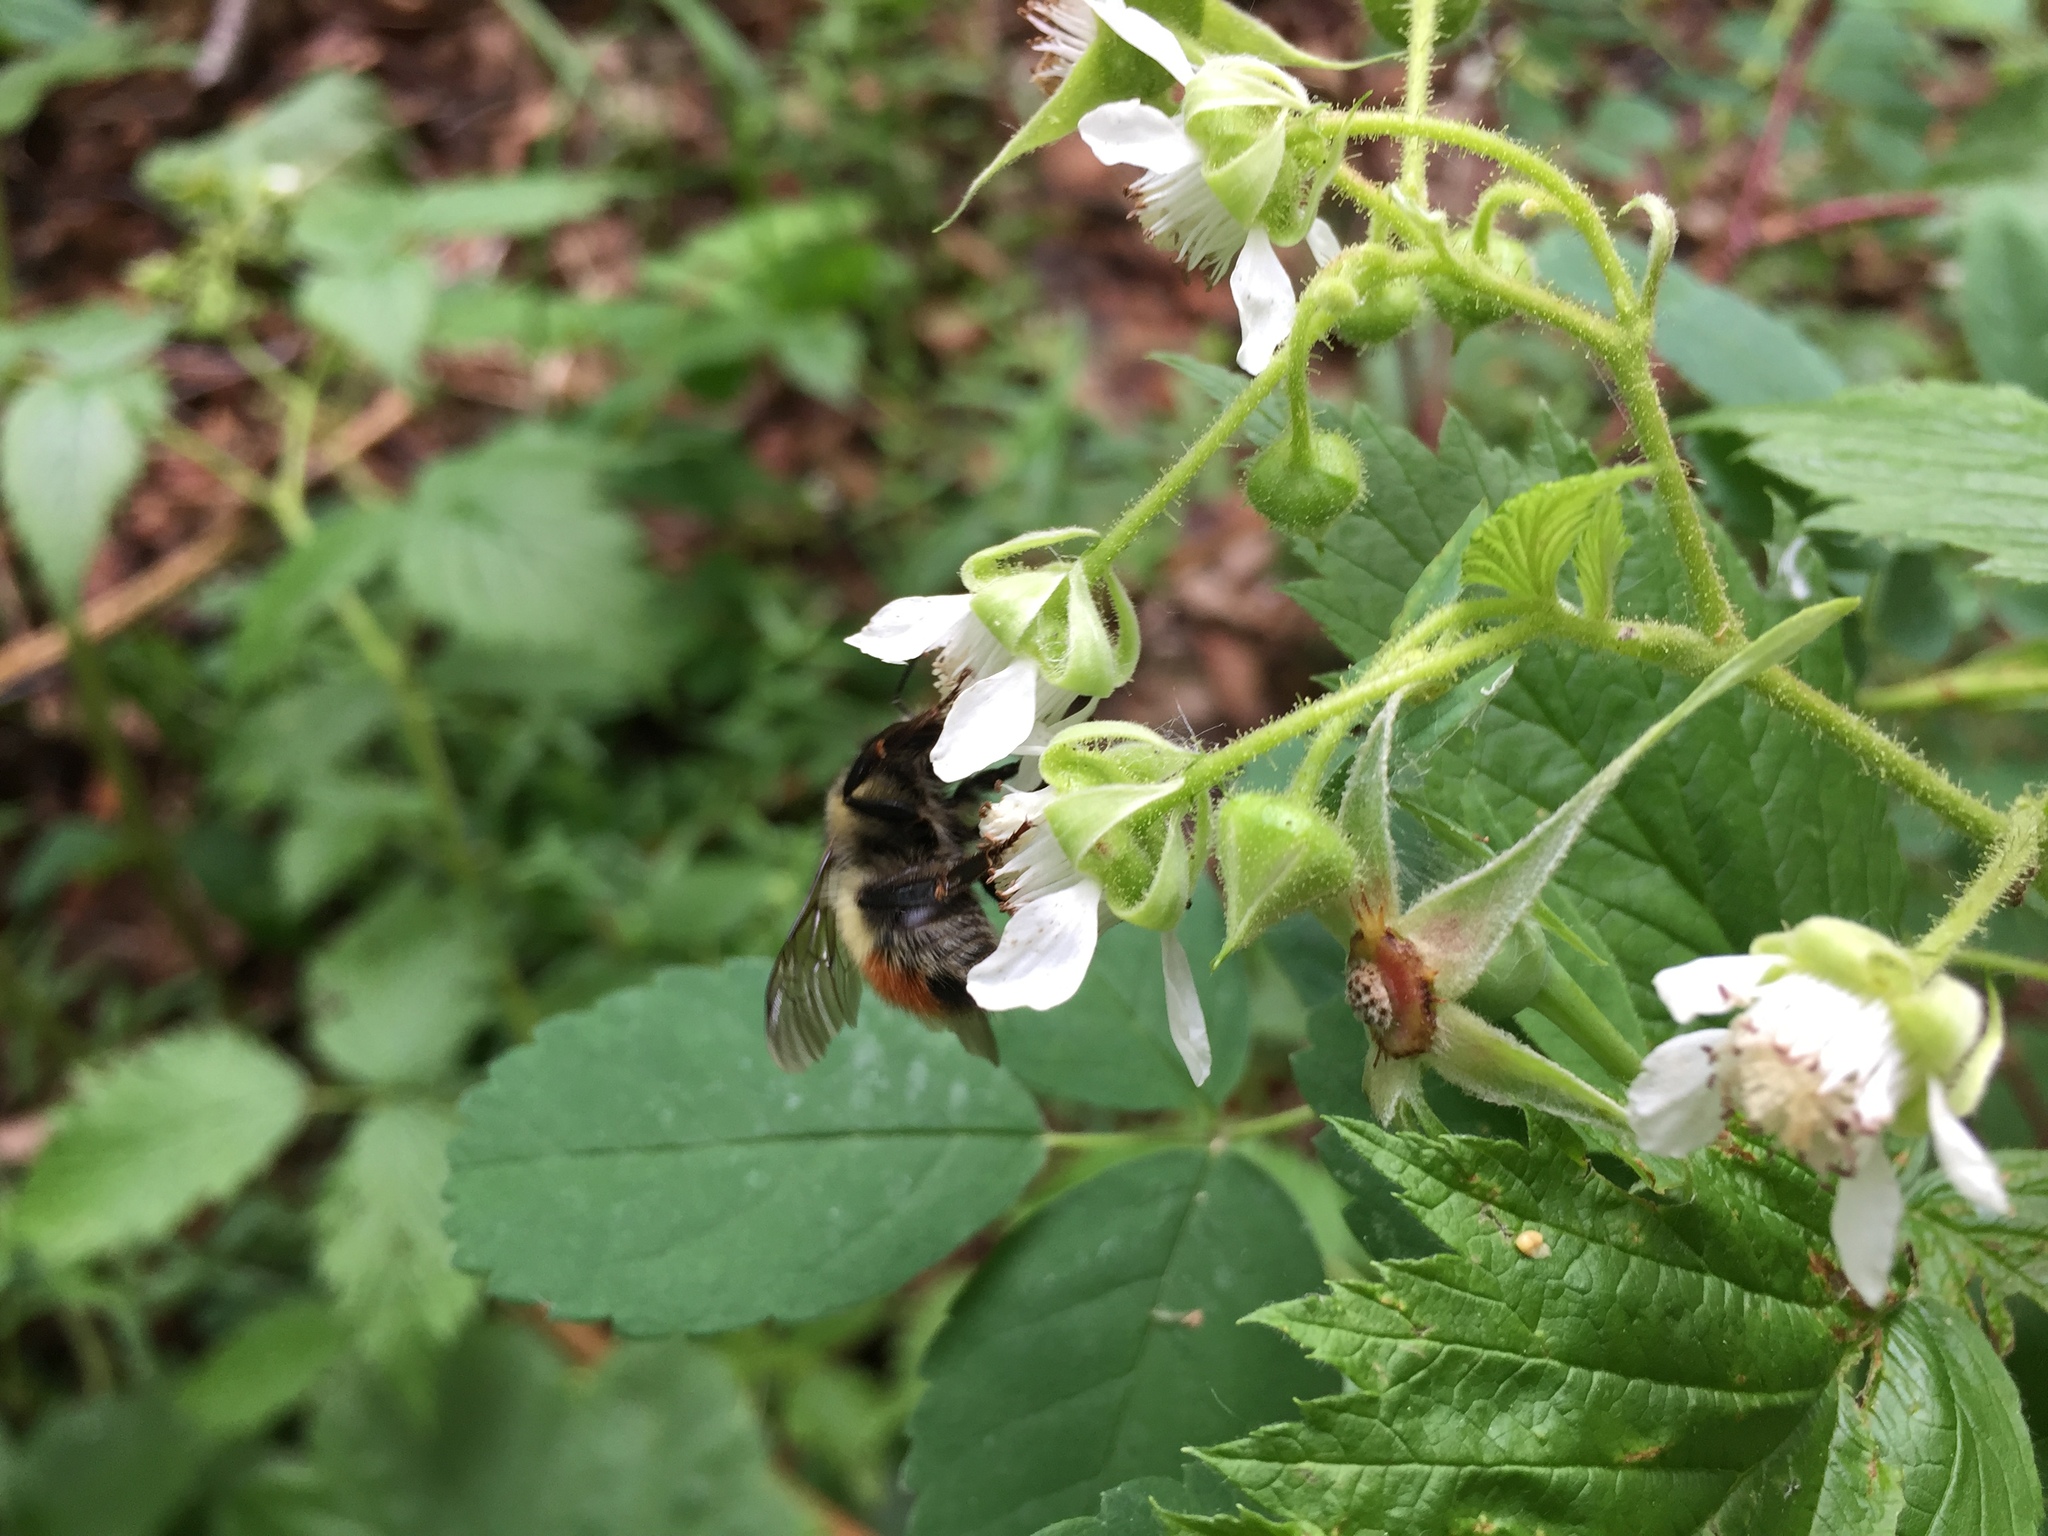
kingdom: Animalia
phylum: Arthropoda
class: Insecta
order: Hymenoptera
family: Apidae
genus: Bombus
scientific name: Bombus flavifrons
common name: Yellow head bumble bee
